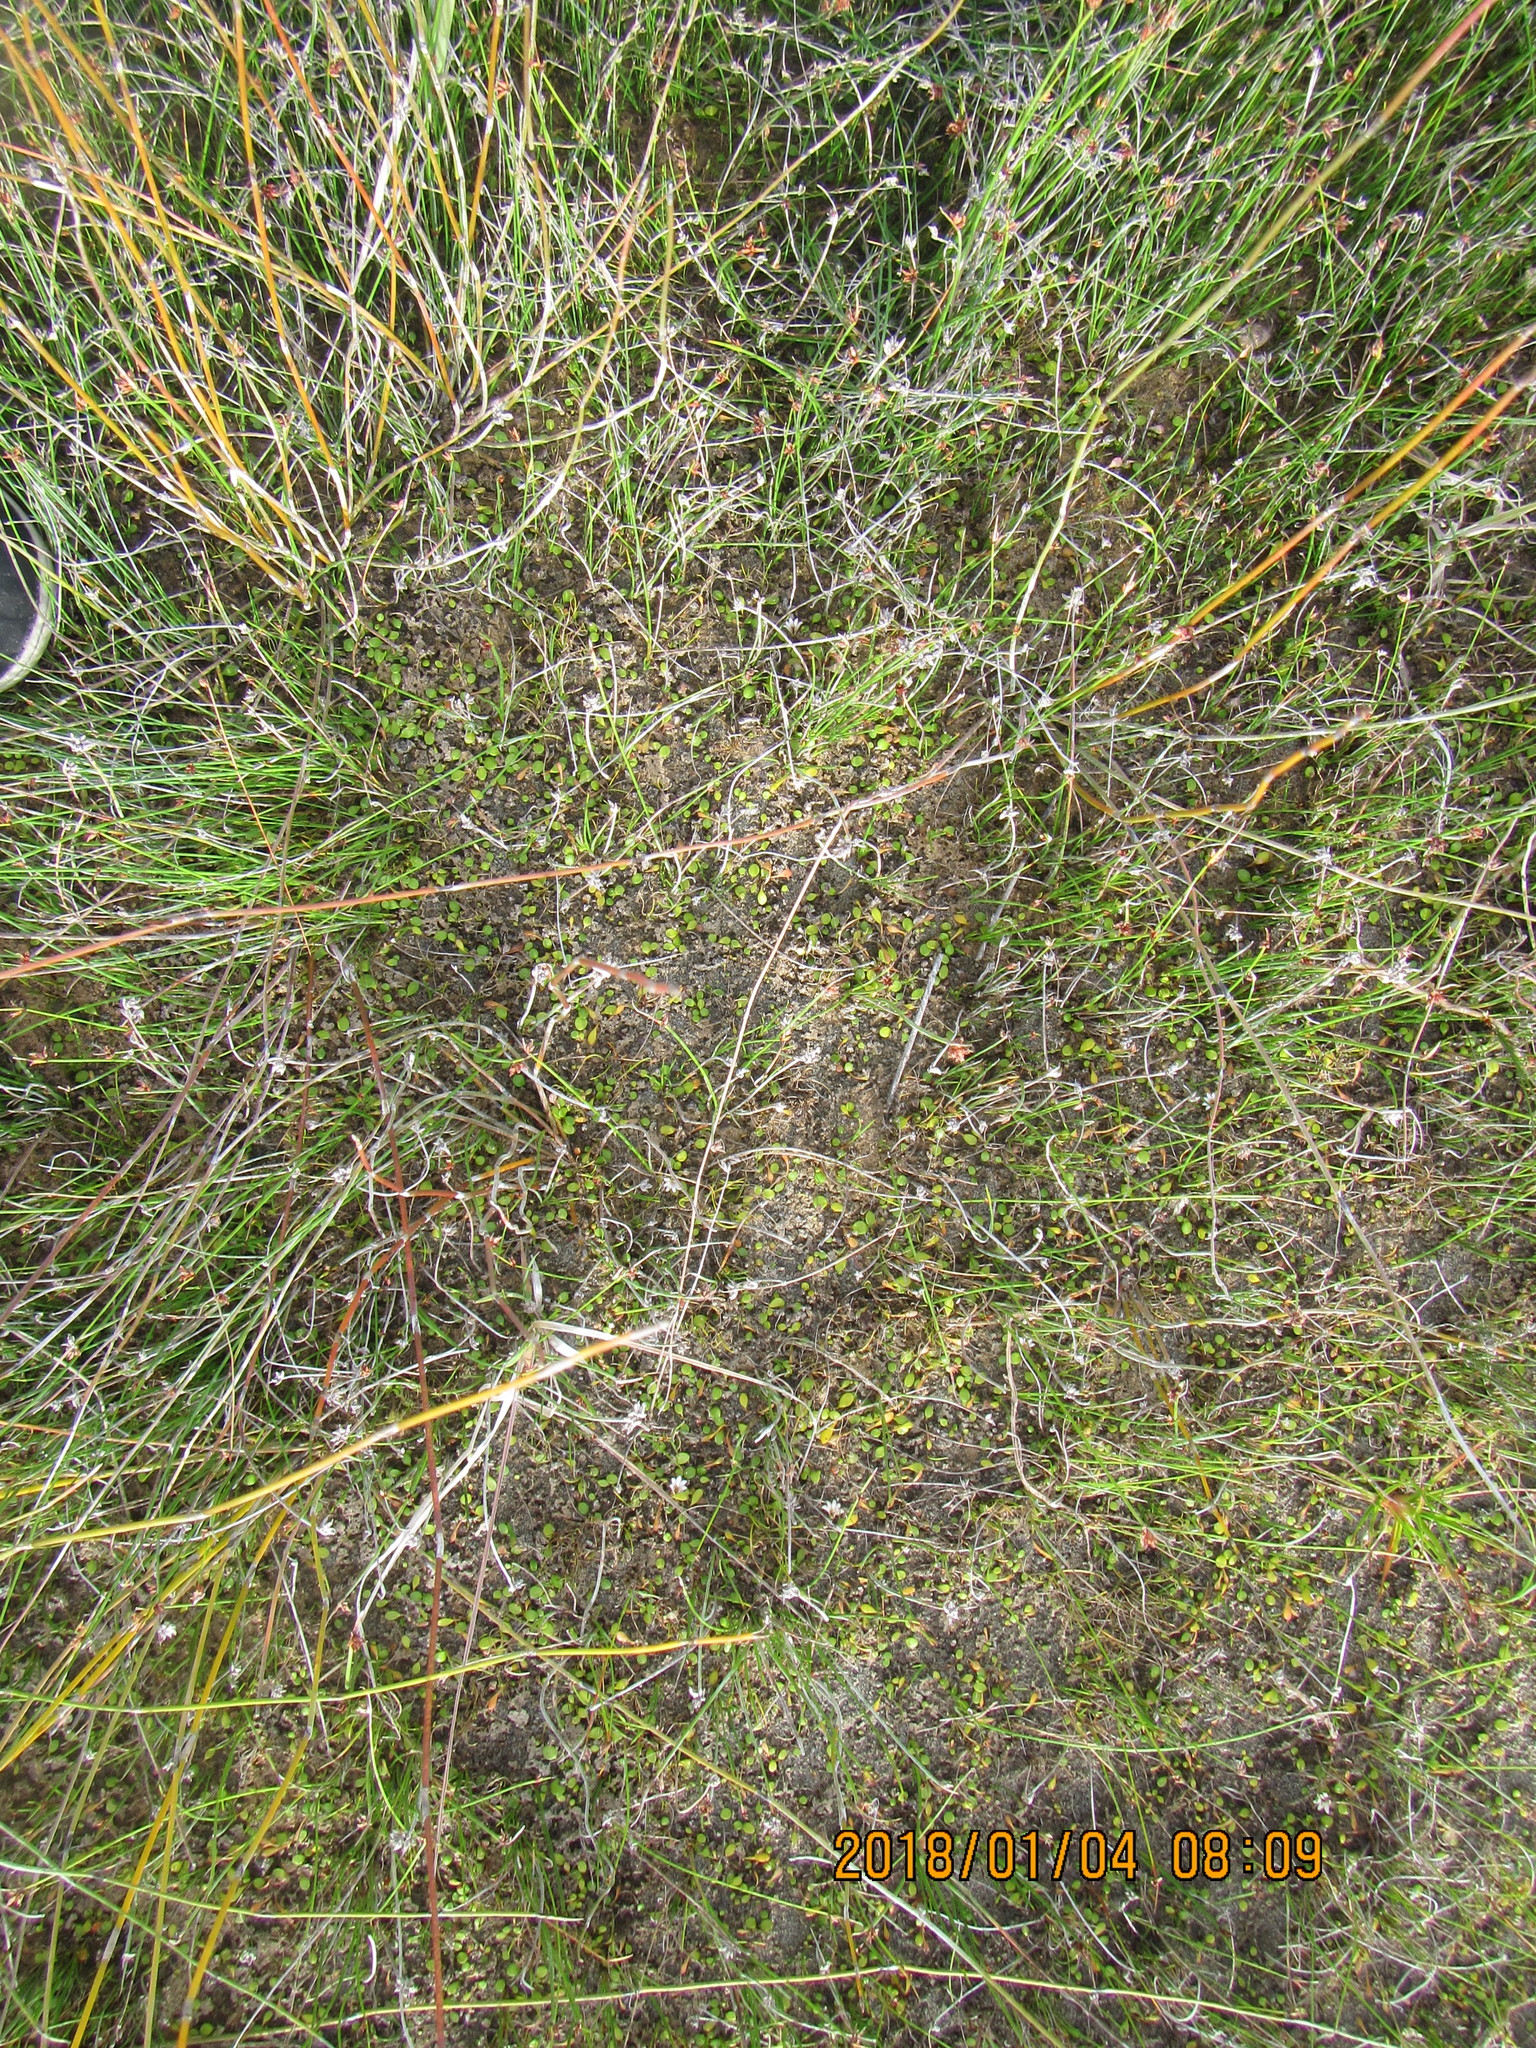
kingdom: Plantae
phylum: Tracheophyta
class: Magnoliopsida
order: Asterales
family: Goodeniaceae
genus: Goodenia
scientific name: Goodenia heenanii
